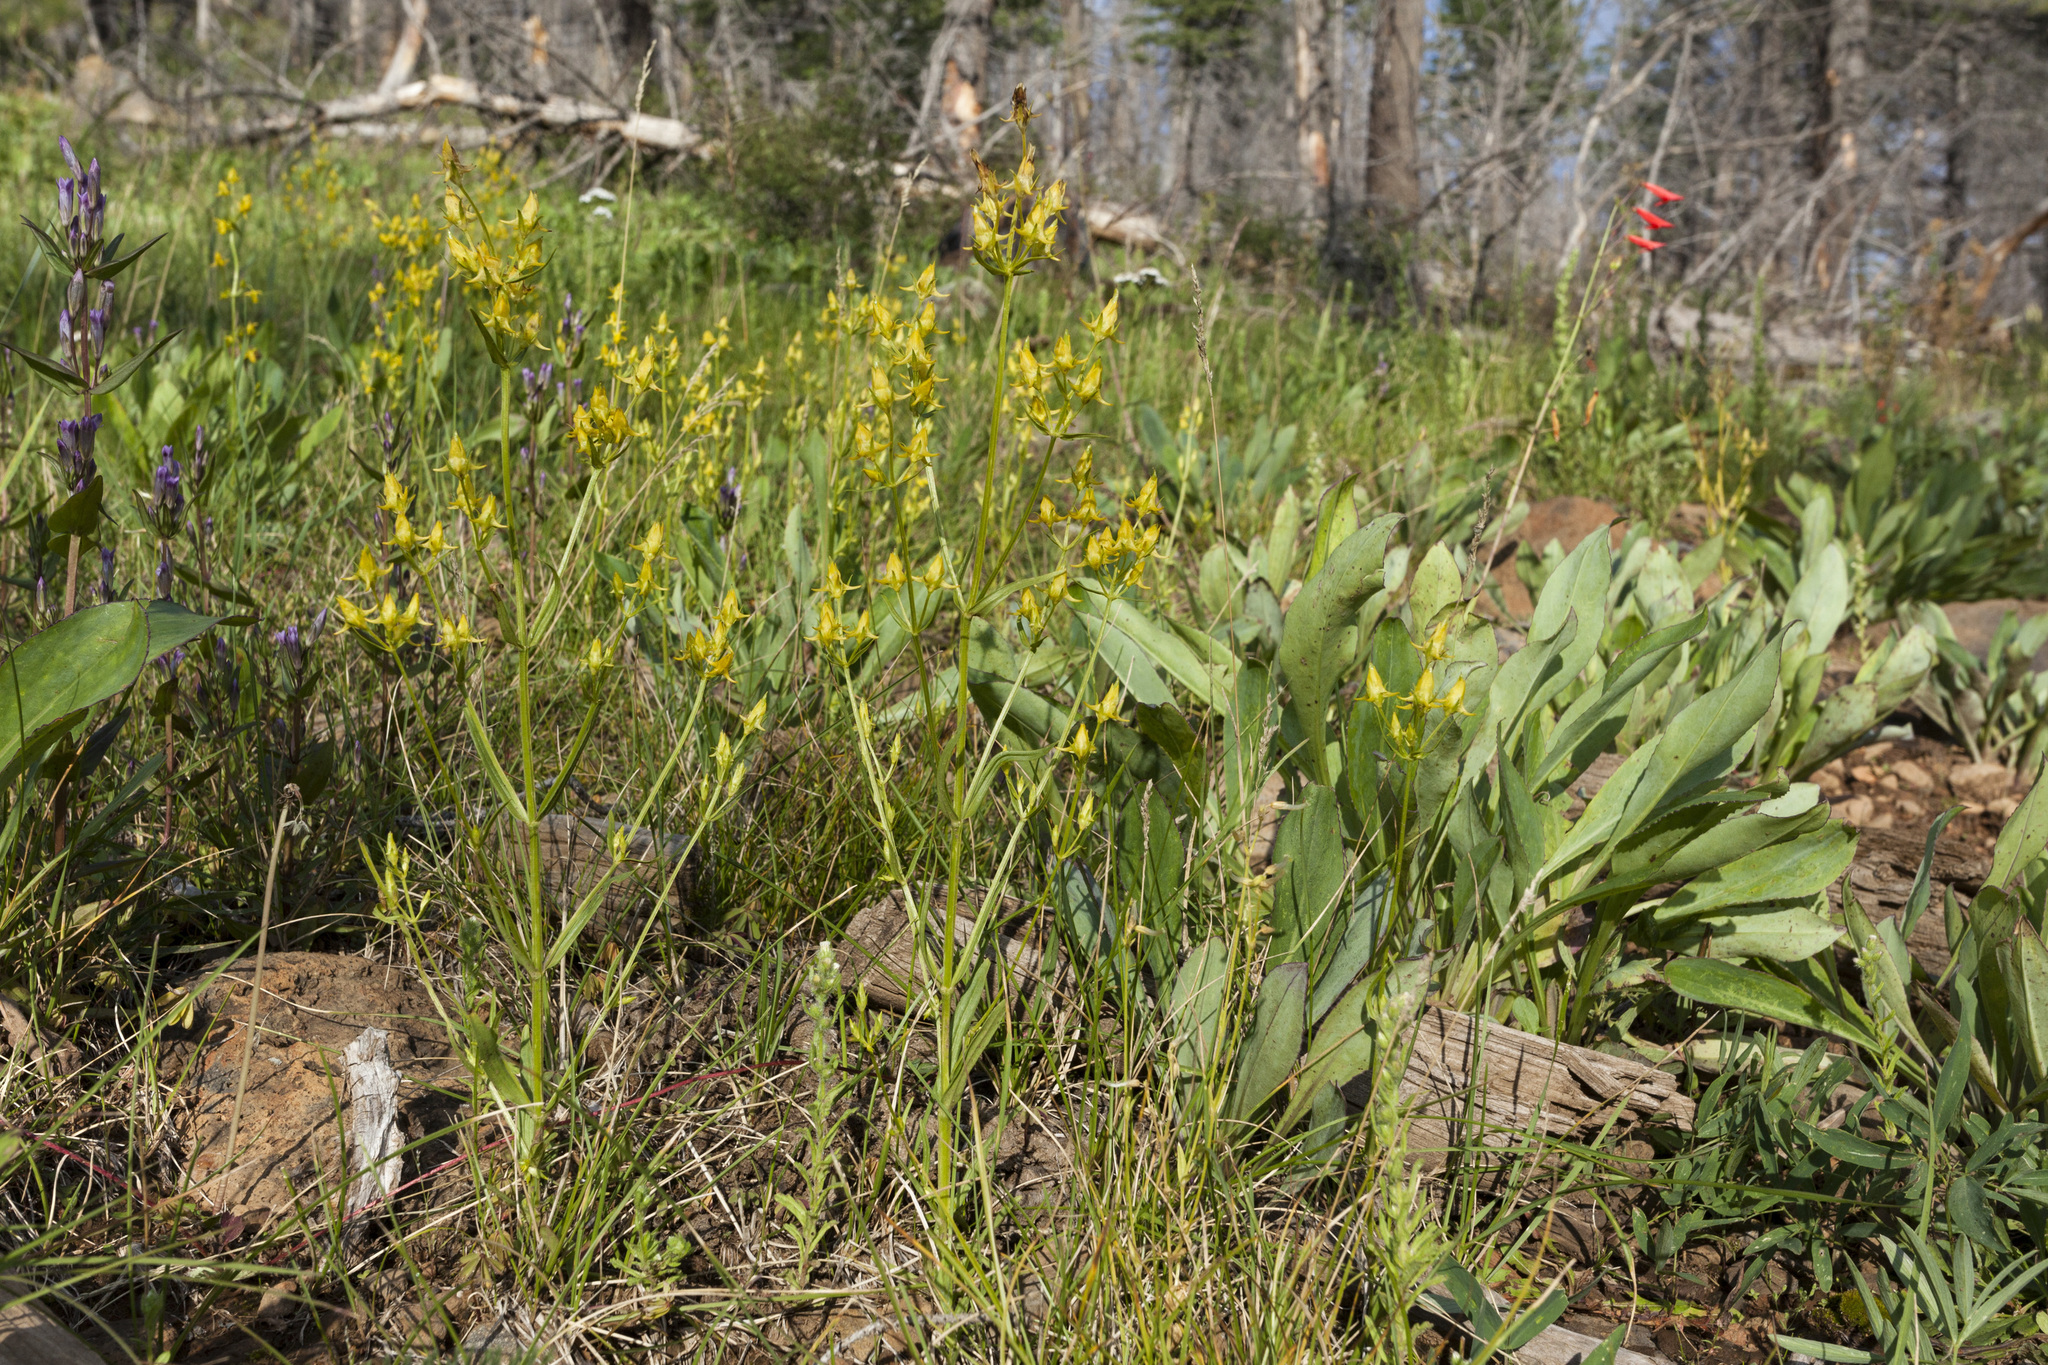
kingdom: Plantae
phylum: Tracheophyta
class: Magnoliopsida
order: Gentianales
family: Gentianaceae
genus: Halenia
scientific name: Halenia recurva
